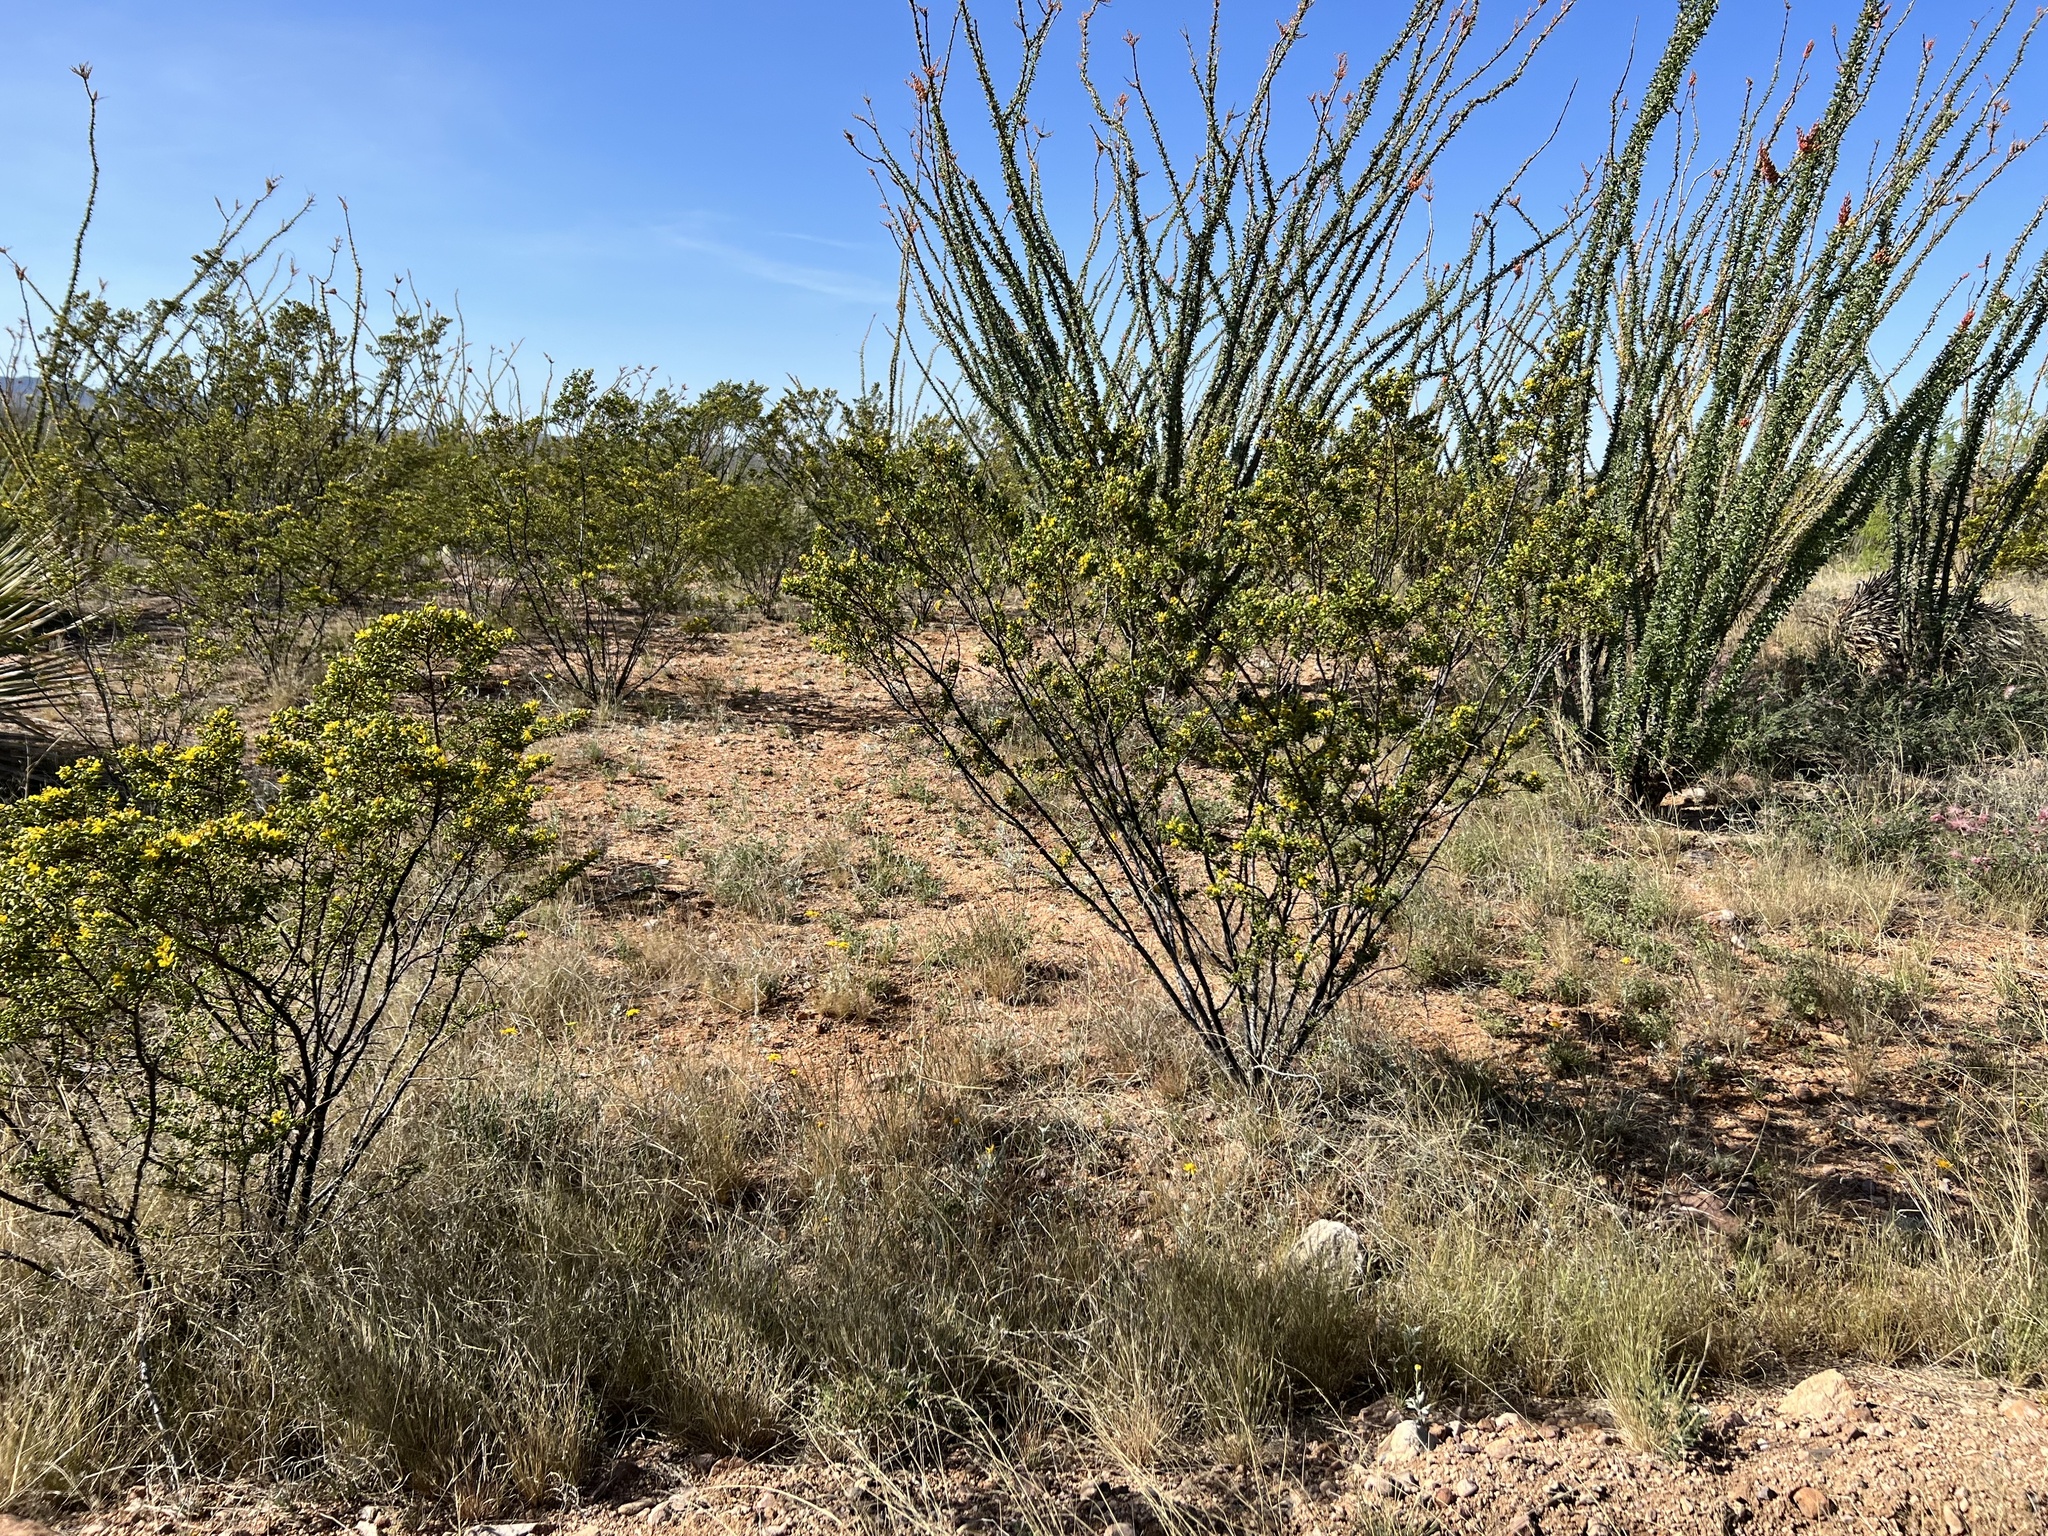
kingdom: Plantae
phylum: Tracheophyta
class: Magnoliopsida
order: Zygophyllales
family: Zygophyllaceae
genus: Larrea
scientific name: Larrea tridentata
